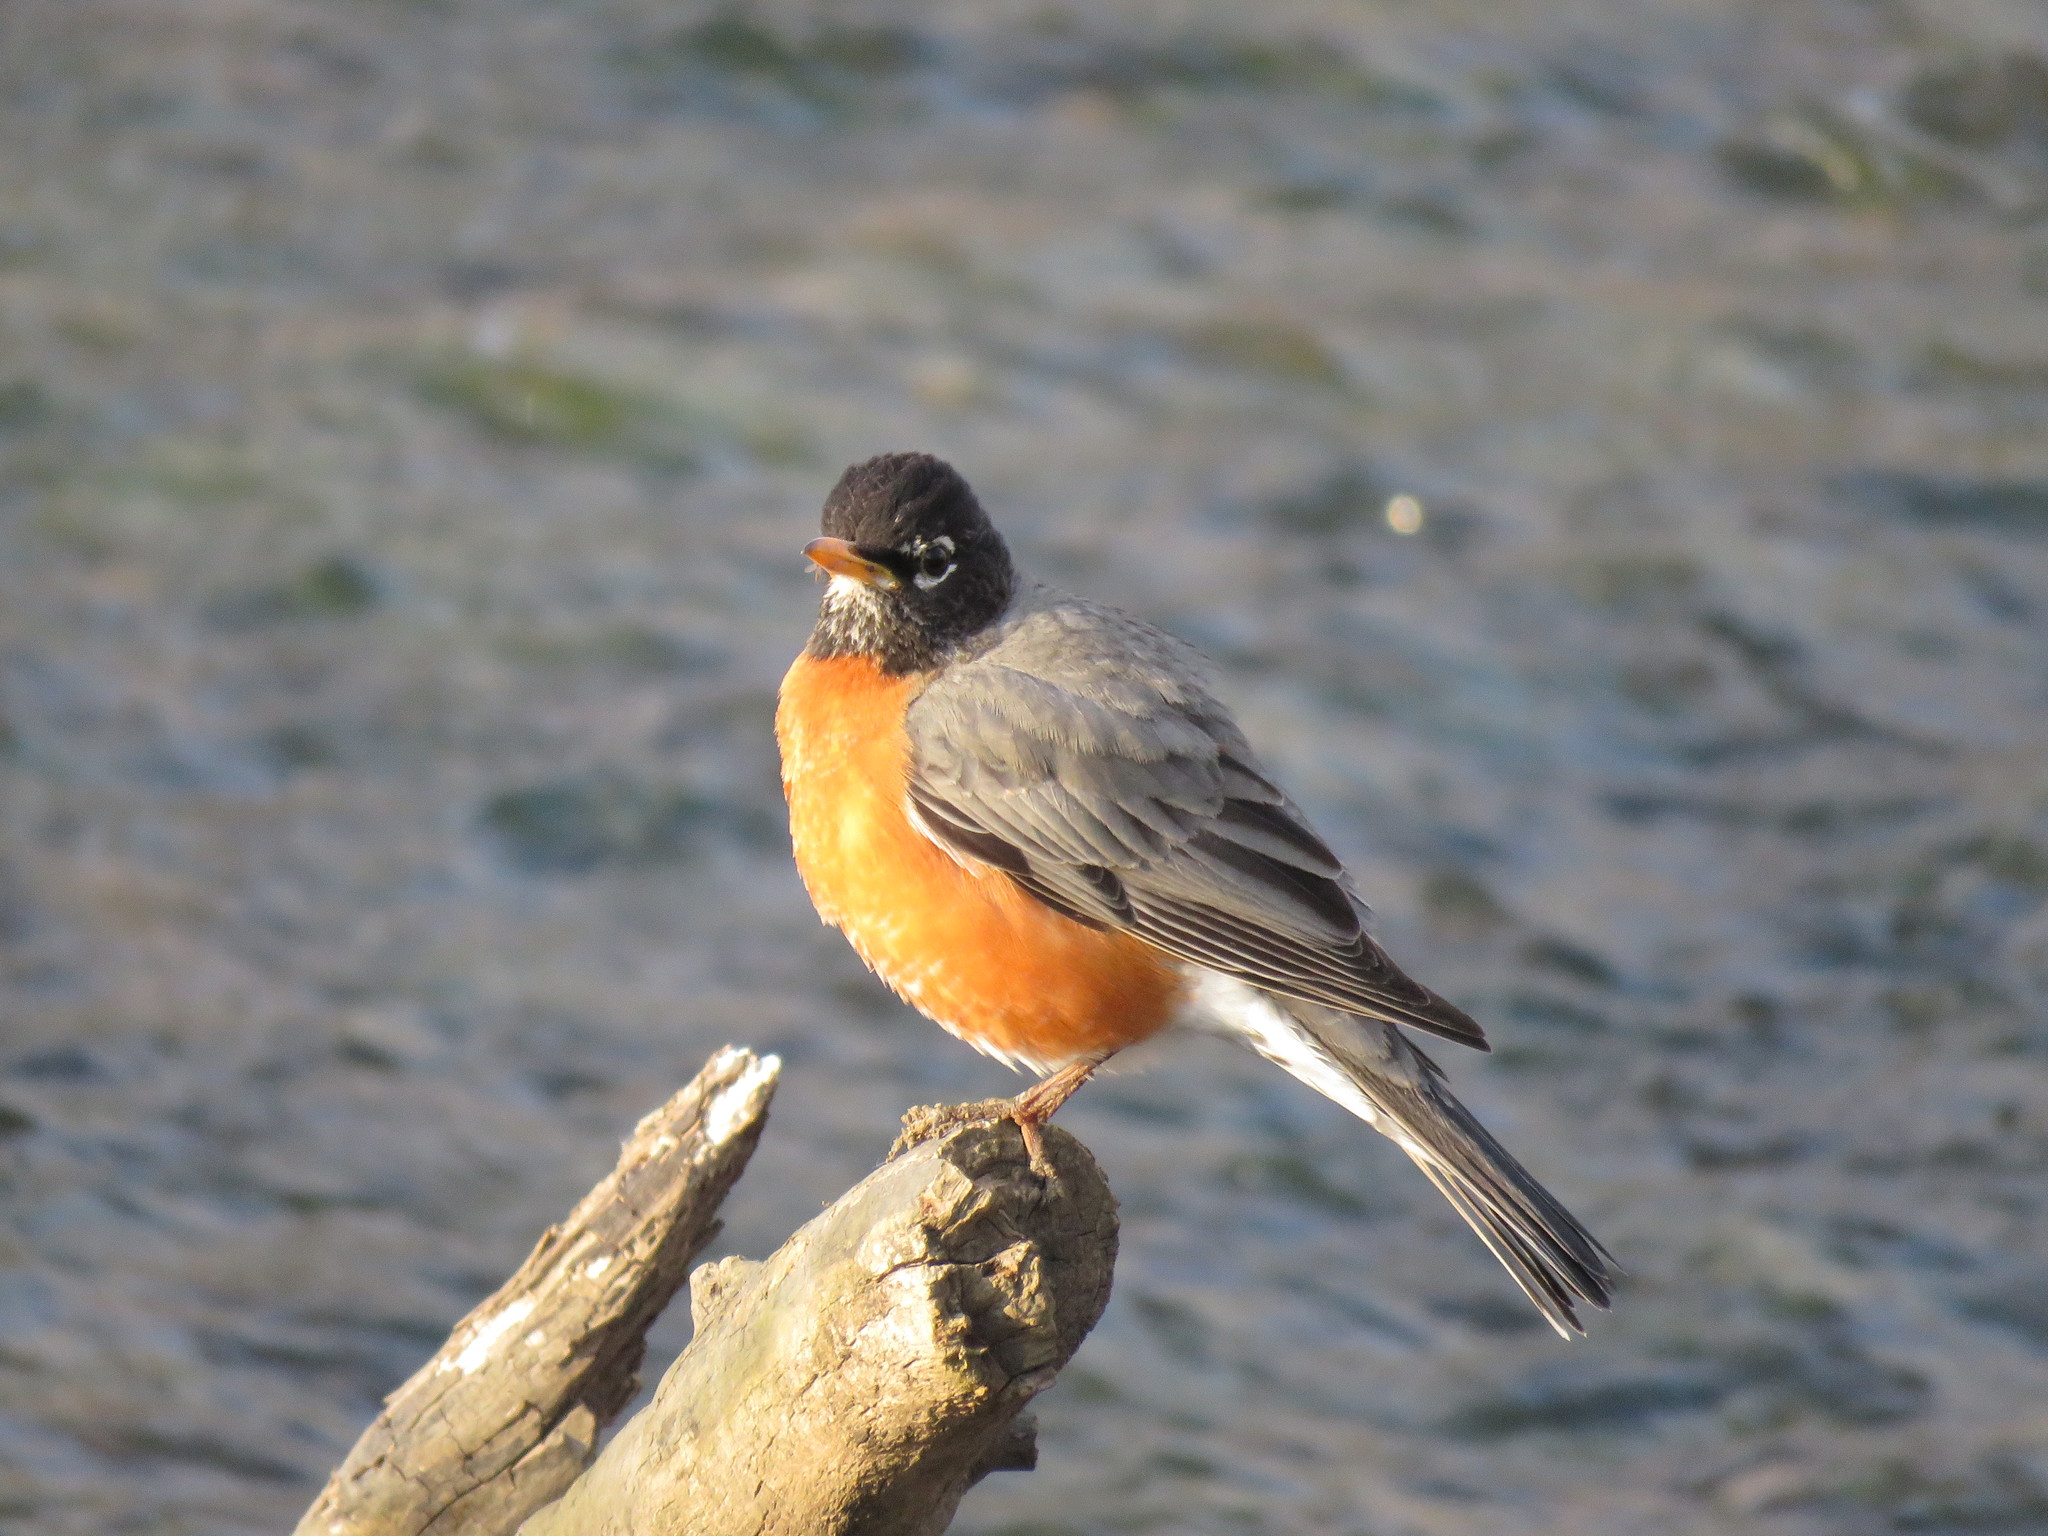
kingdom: Animalia
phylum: Chordata
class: Aves
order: Passeriformes
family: Turdidae
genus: Turdus
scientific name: Turdus migratorius
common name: American robin
